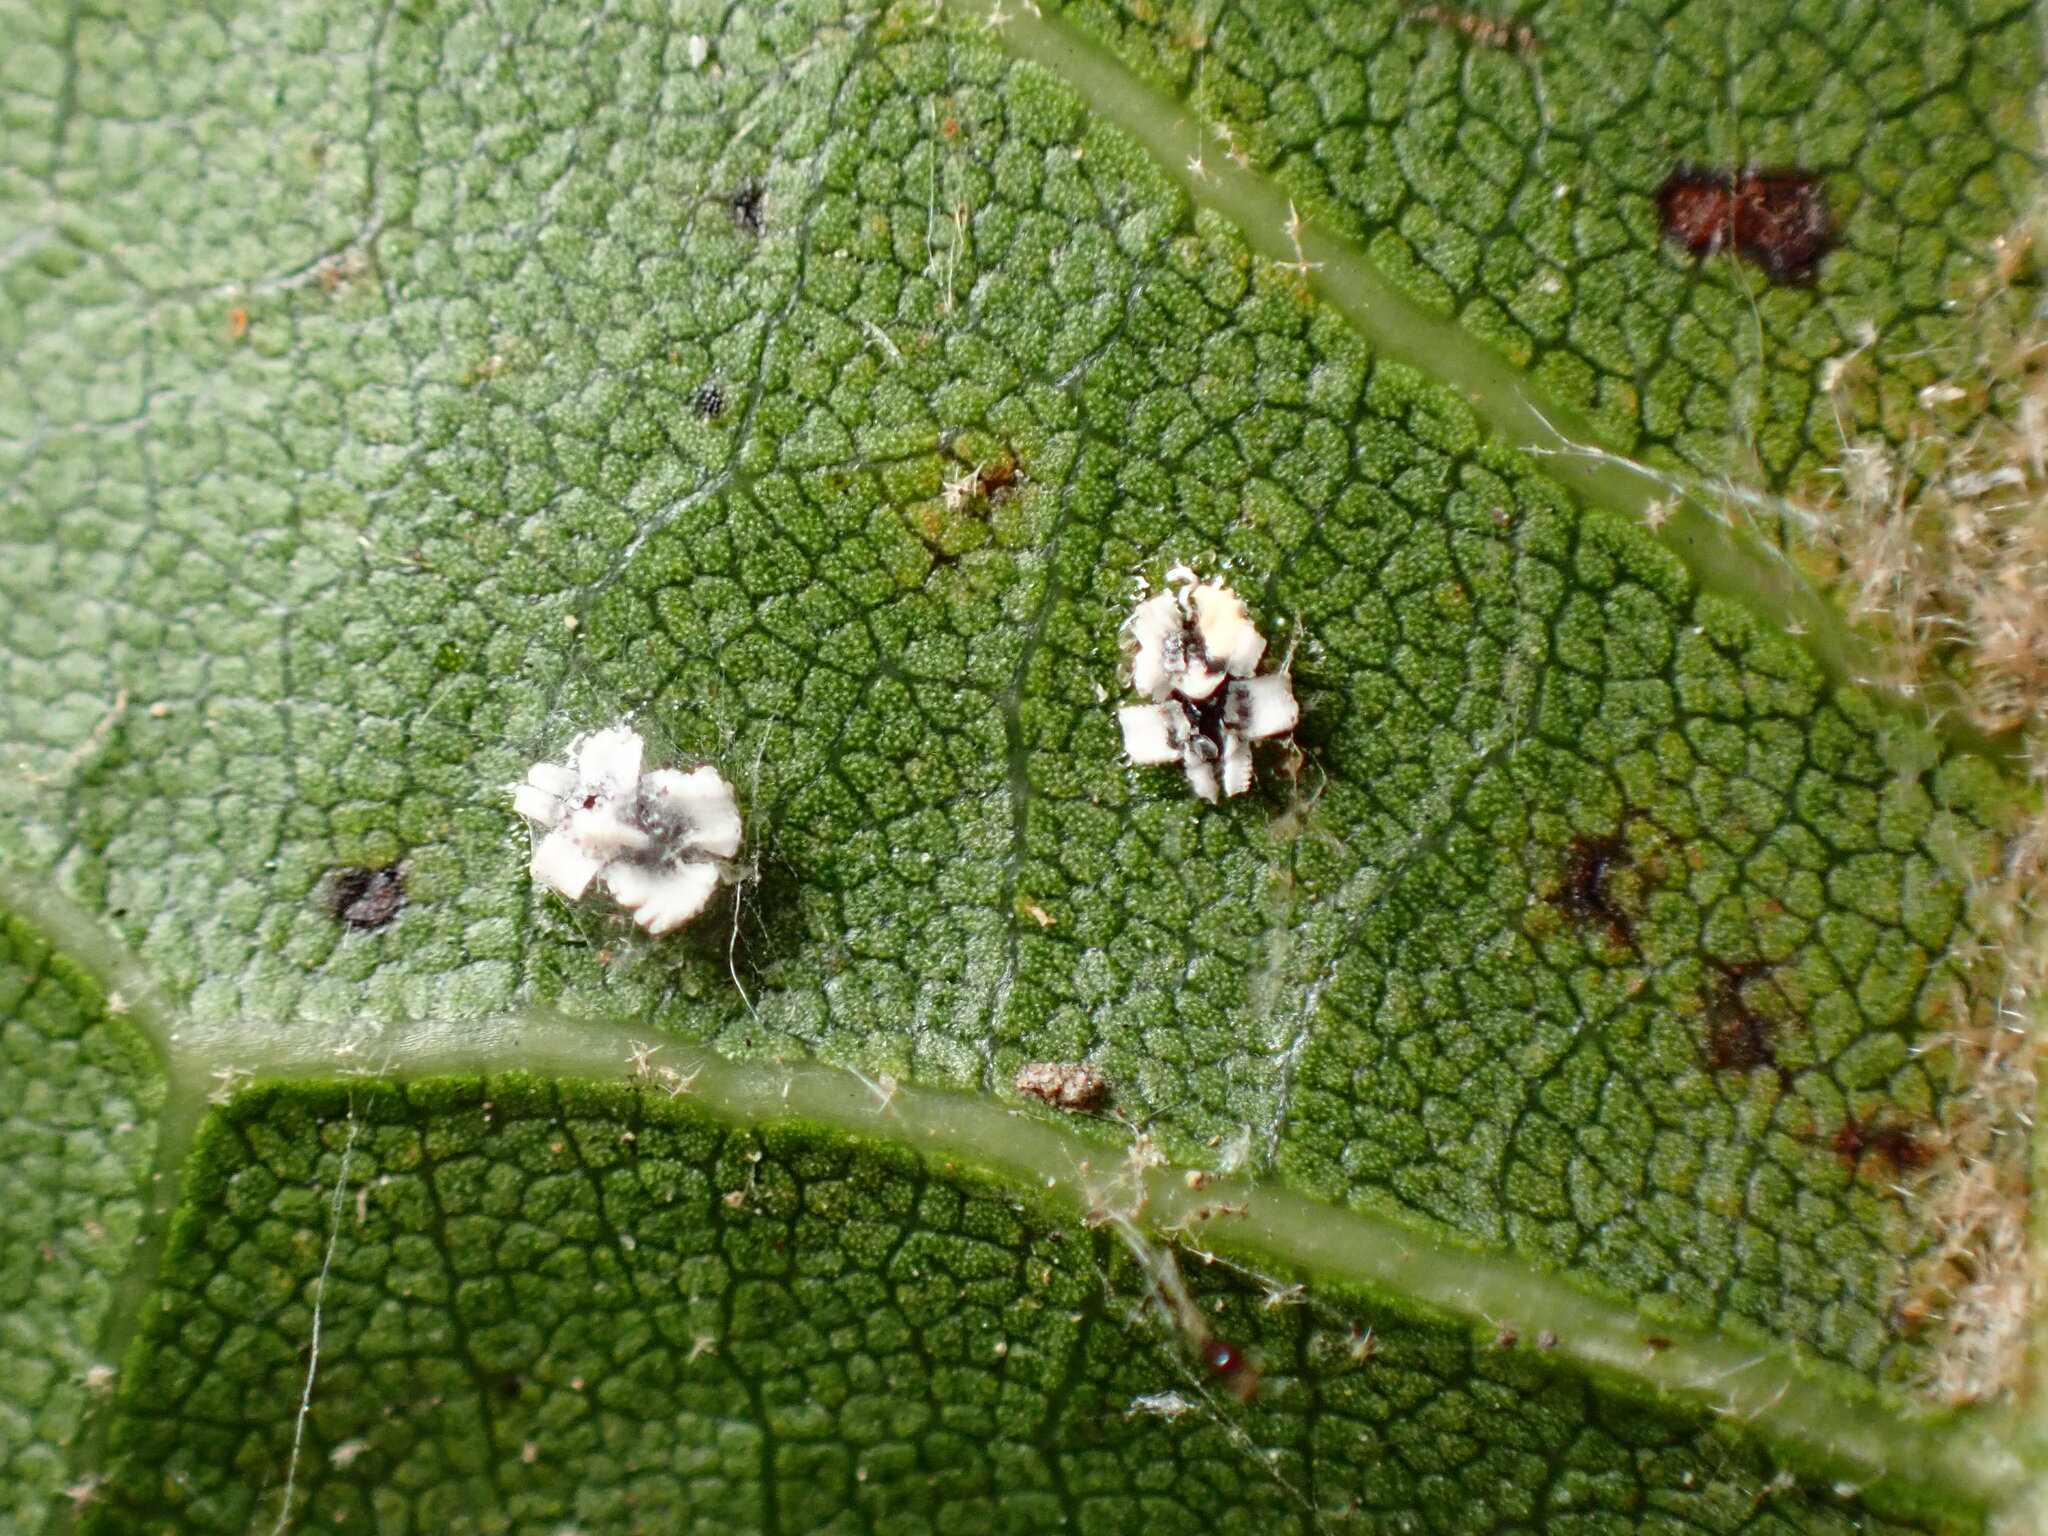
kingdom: Animalia
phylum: Arthropoda
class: Insecta
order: Hemiptera
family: Aleyrodidae
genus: Aleuroplatus
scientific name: Aleuroplatus coronata
